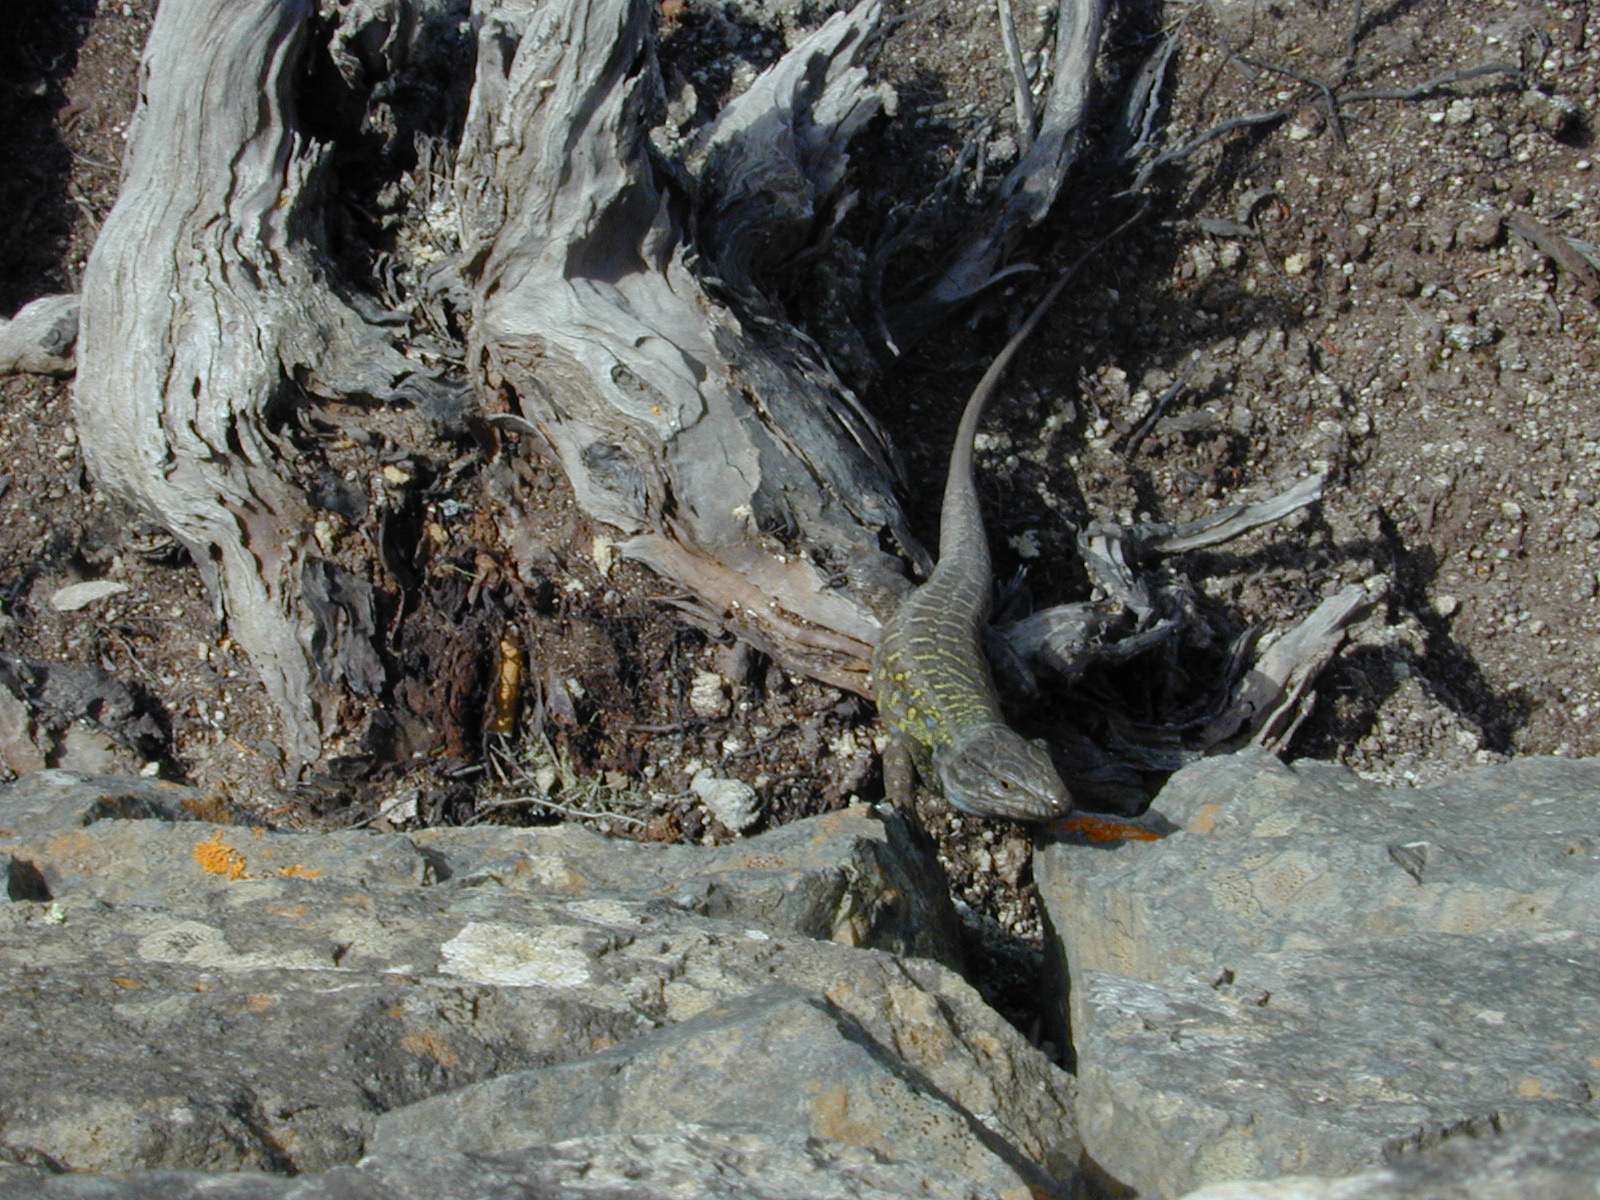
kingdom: Animalia
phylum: Chordata
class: Squamata
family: Lacertidae
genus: Gallotia
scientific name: Gallotia galloti
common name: Gallot's lizard
